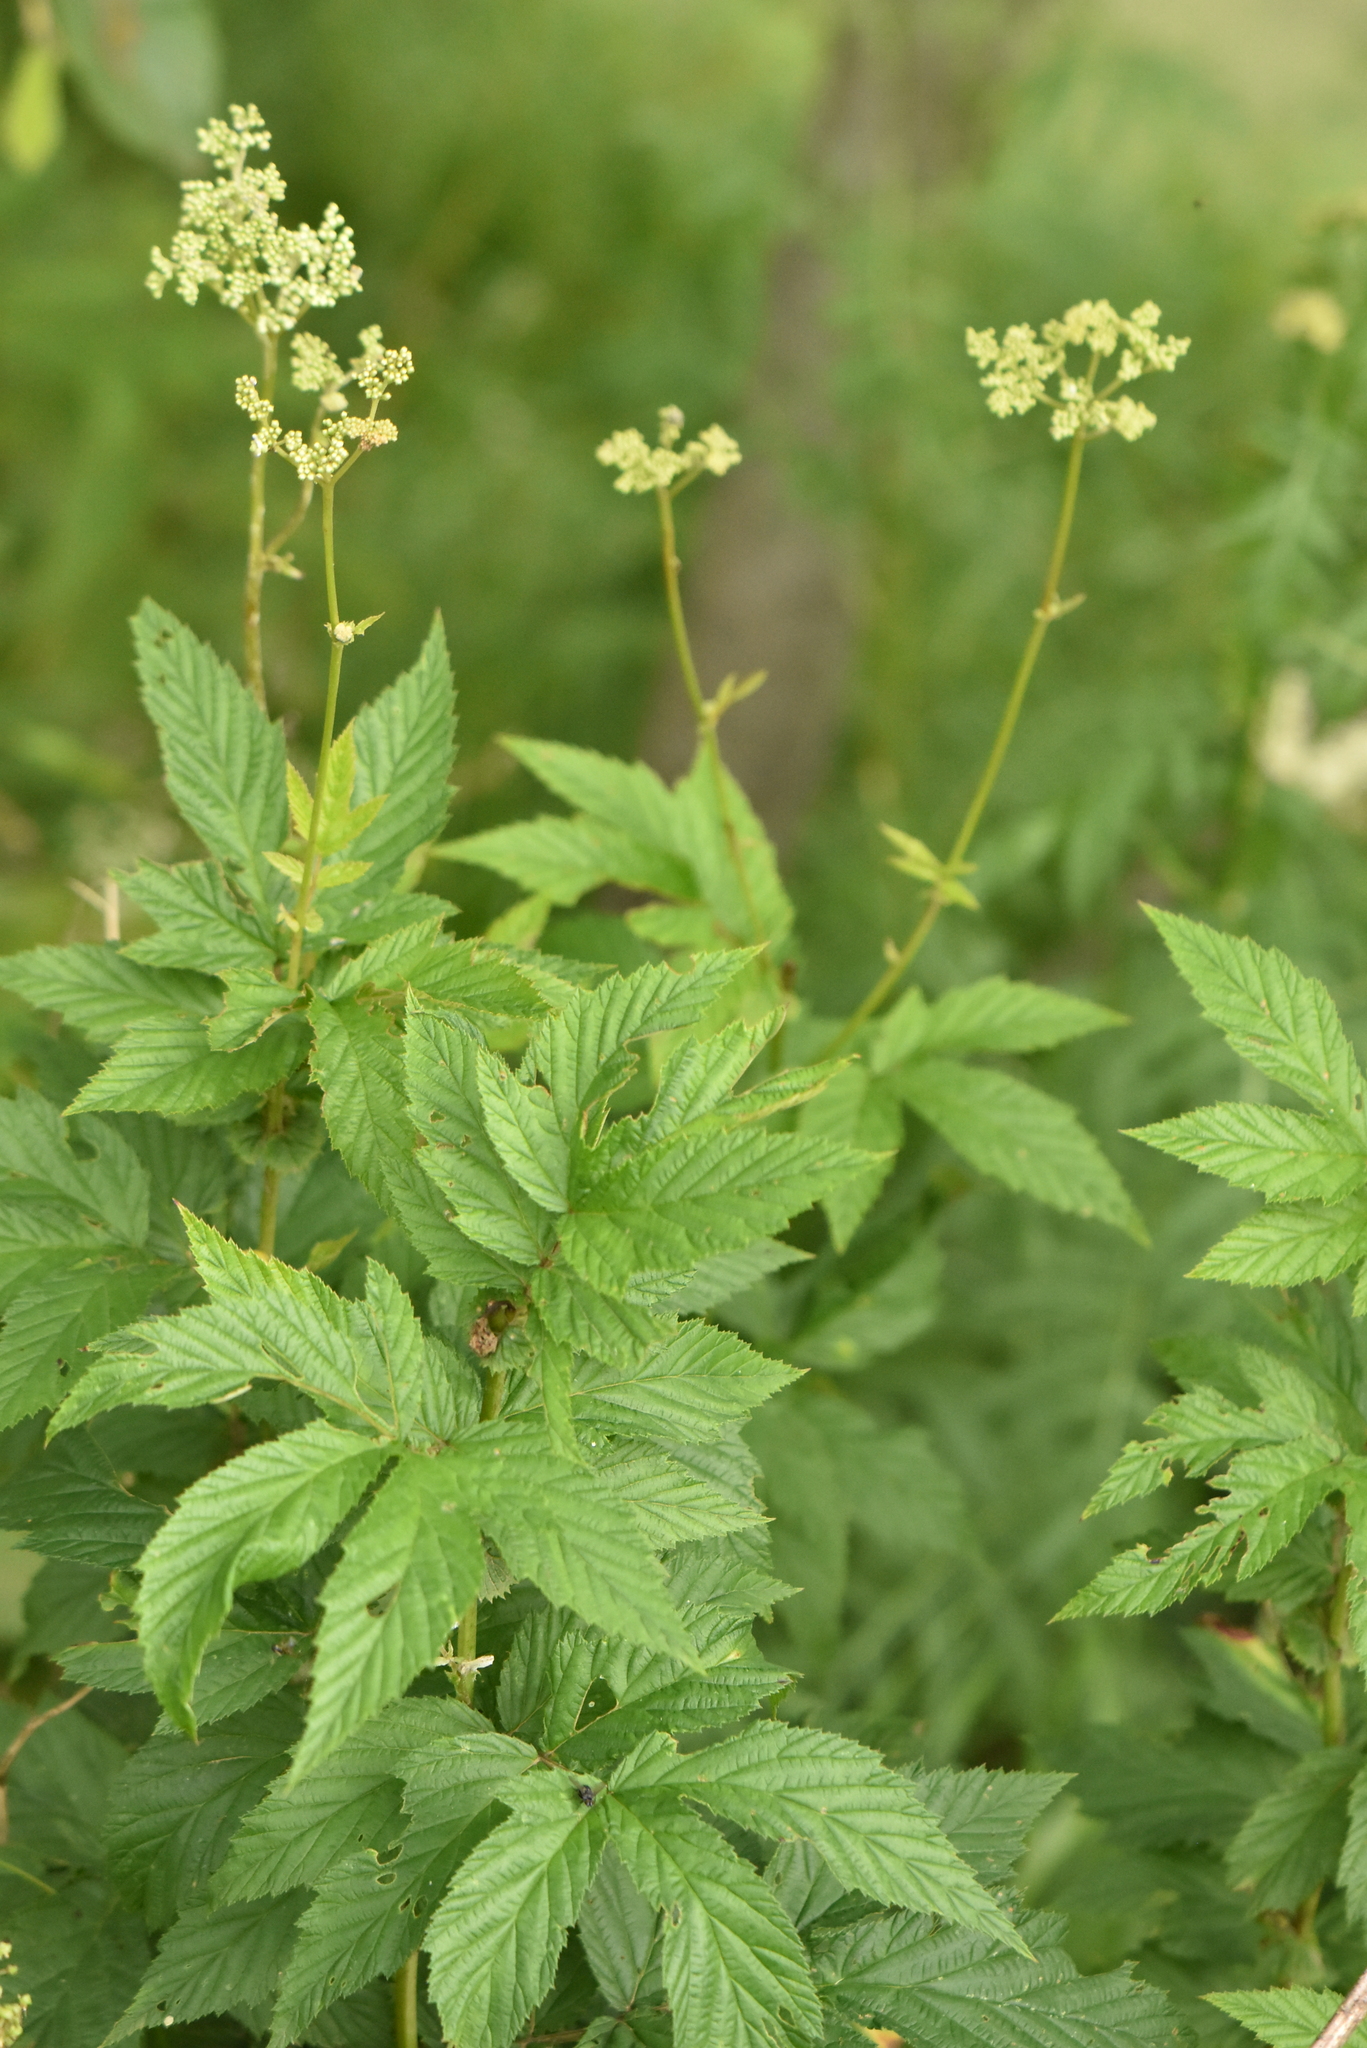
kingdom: Plantae
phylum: Tracheophyta
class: Magnoliopsida
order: Rosales
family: Rosaceae
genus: Filipendula
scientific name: Filipendula ulmaria
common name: Meadowsweet
